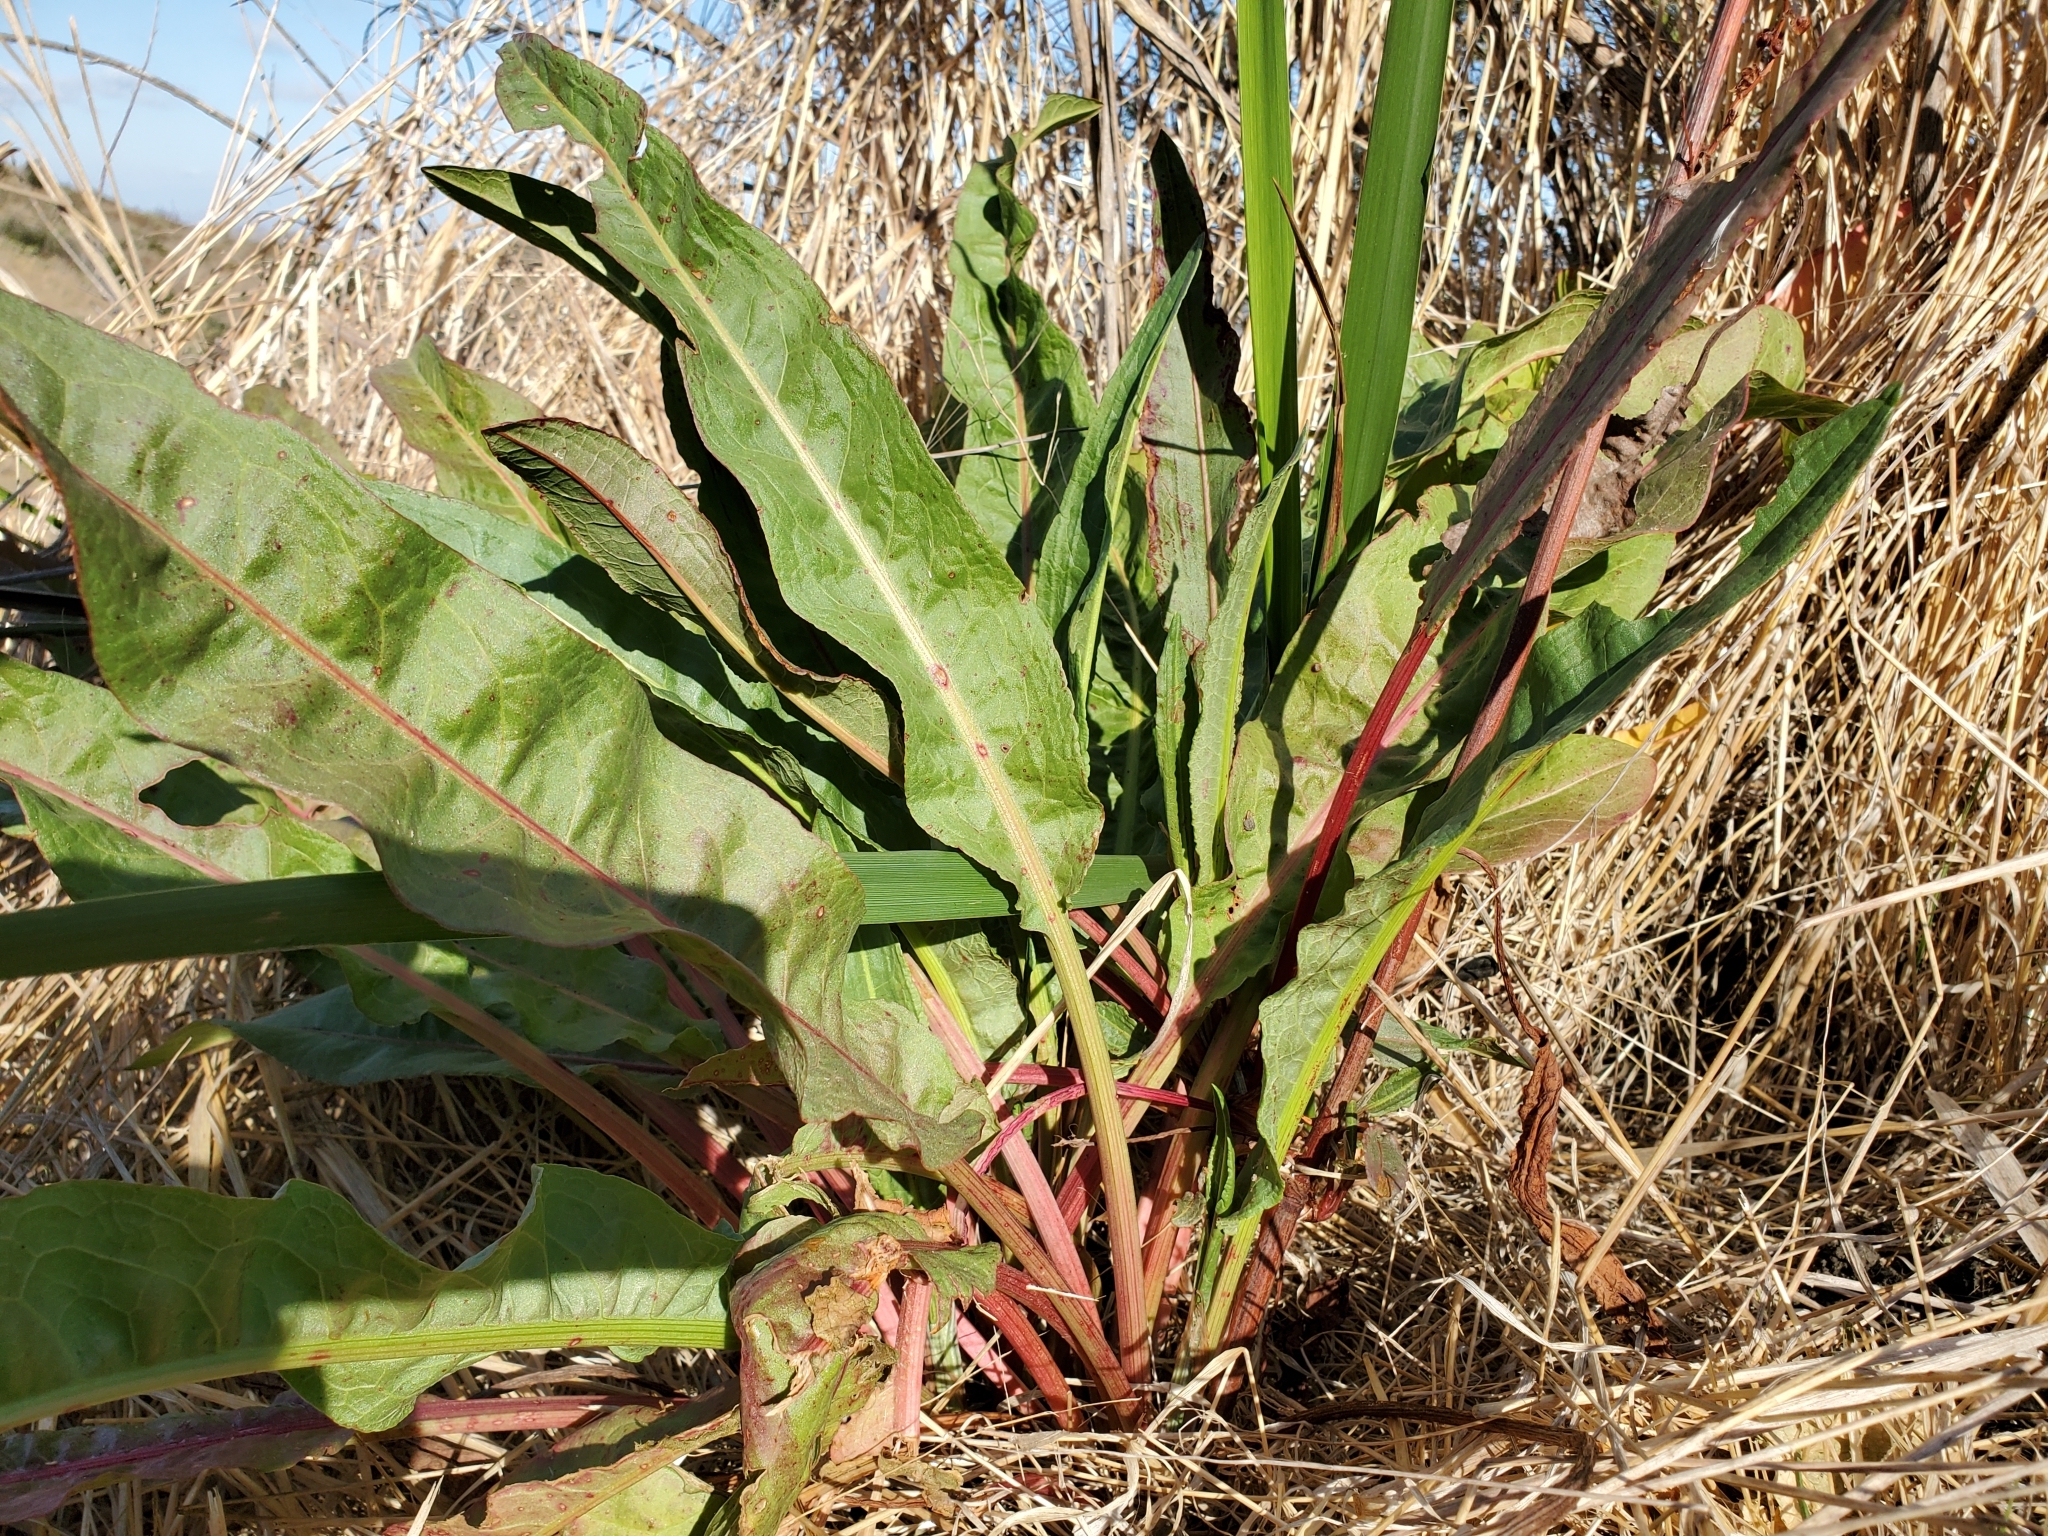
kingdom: Plantae
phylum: Tracheophyta
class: Magnoliopsida
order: Caryophyllales
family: Polygonaceae
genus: Rumex
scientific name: Rumex crispus
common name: Curled dock
